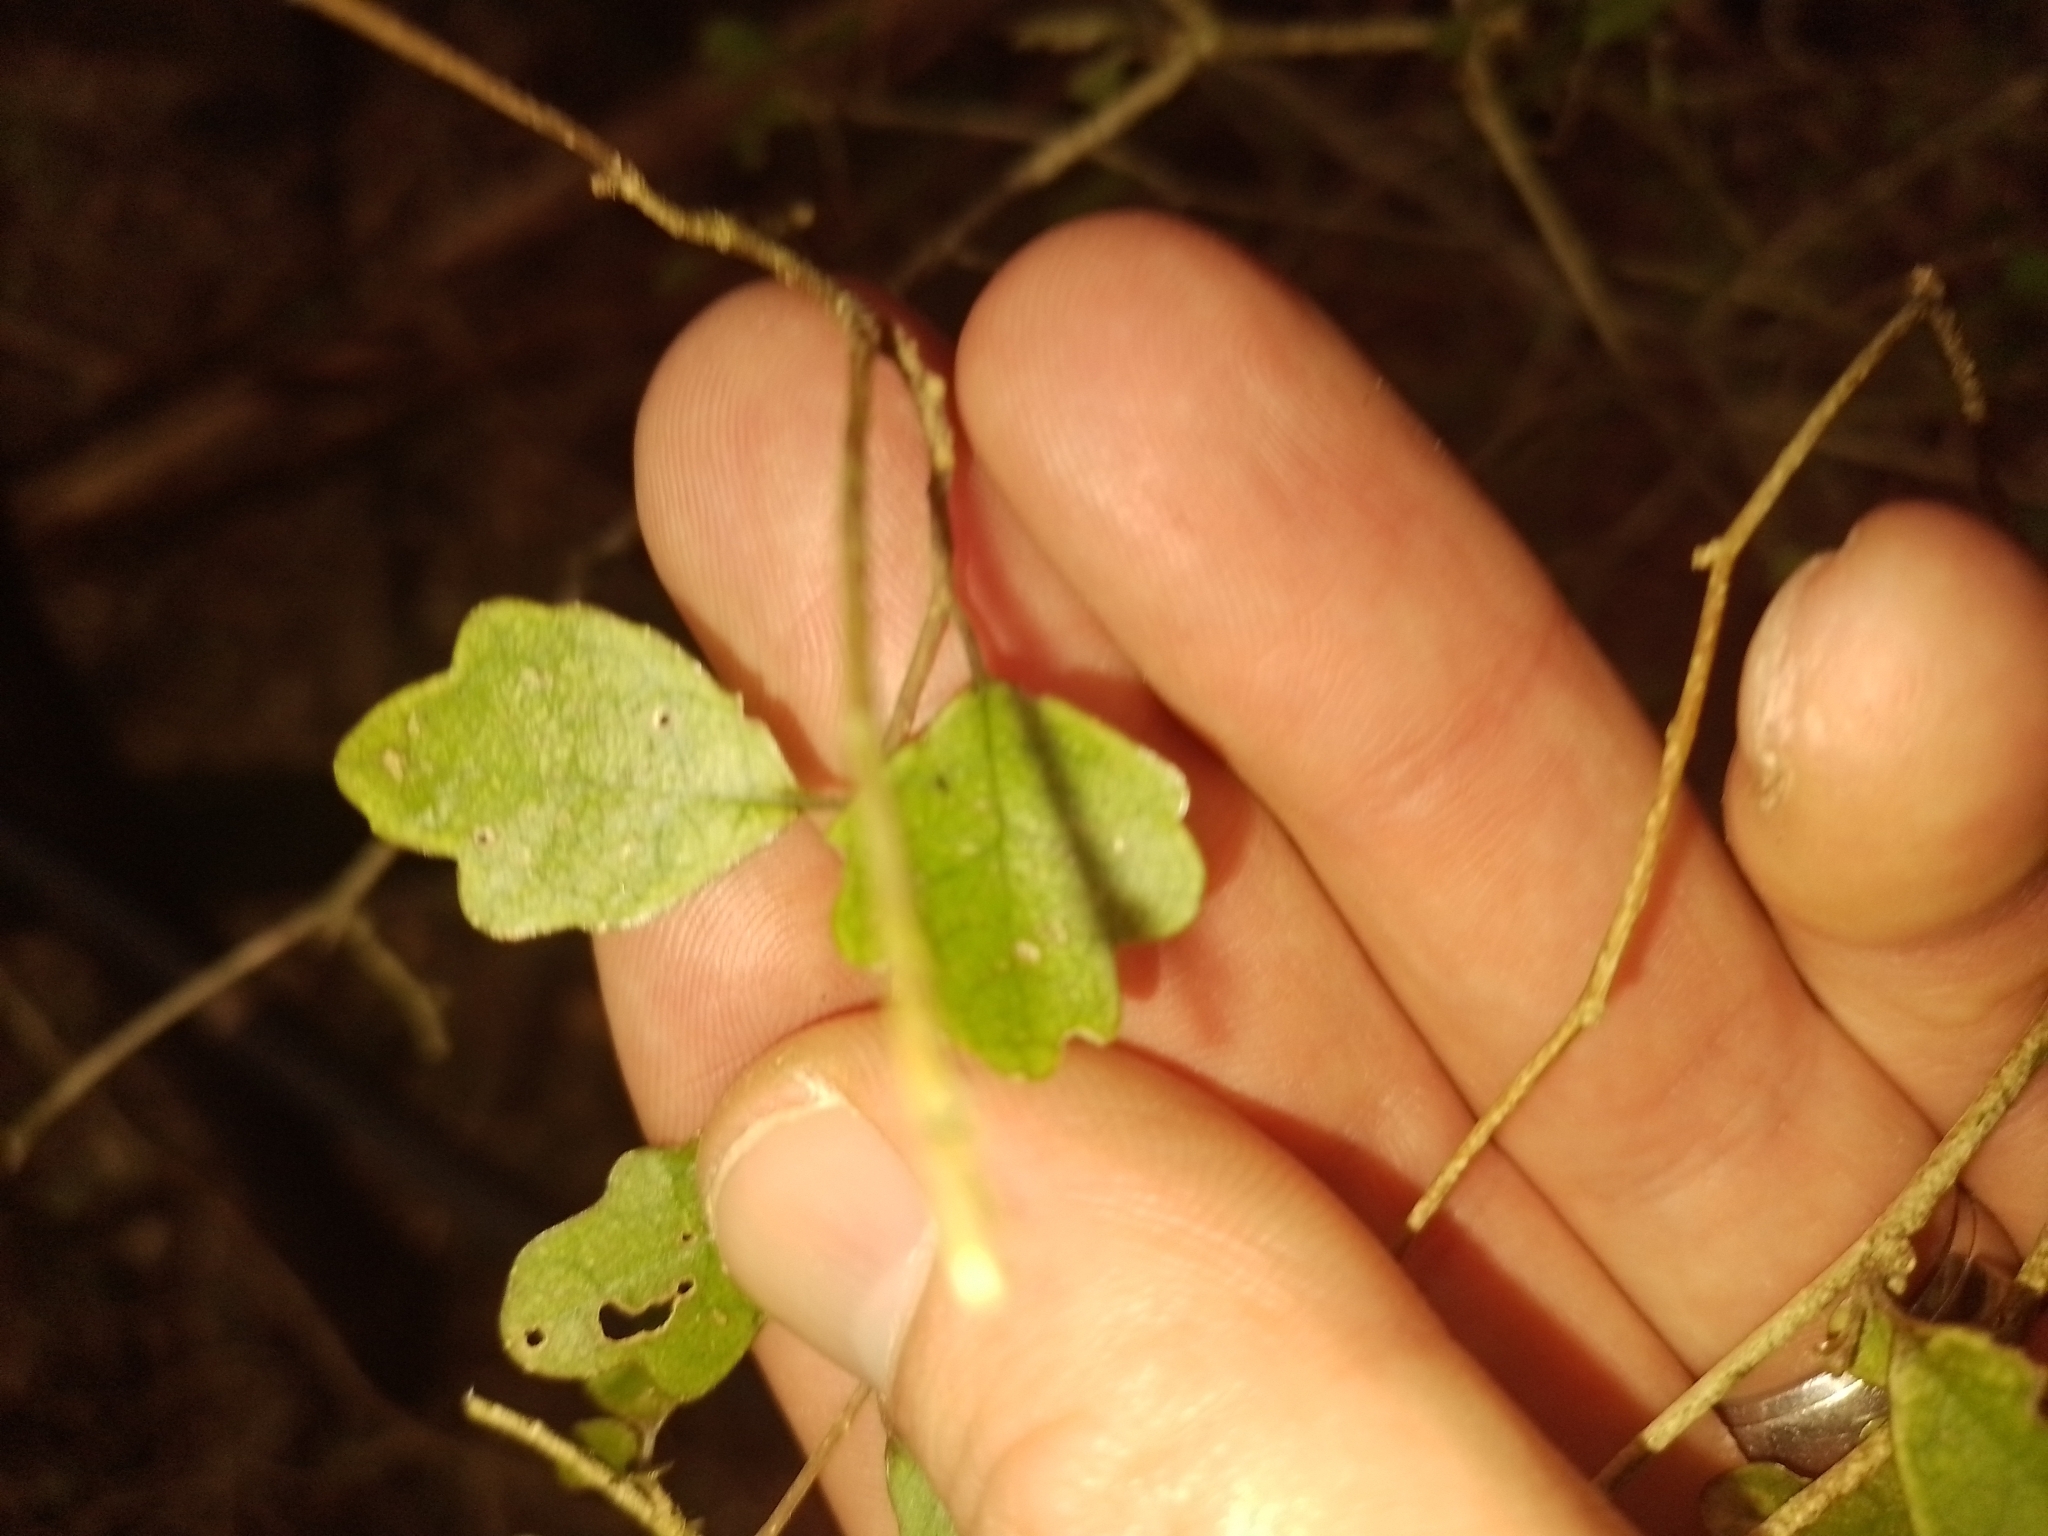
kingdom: Plantae
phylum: Tracheophyta
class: Magnoliopsida
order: Apiales
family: Pennantiaceae
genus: Pennantia
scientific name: Pennantia corymbosa
